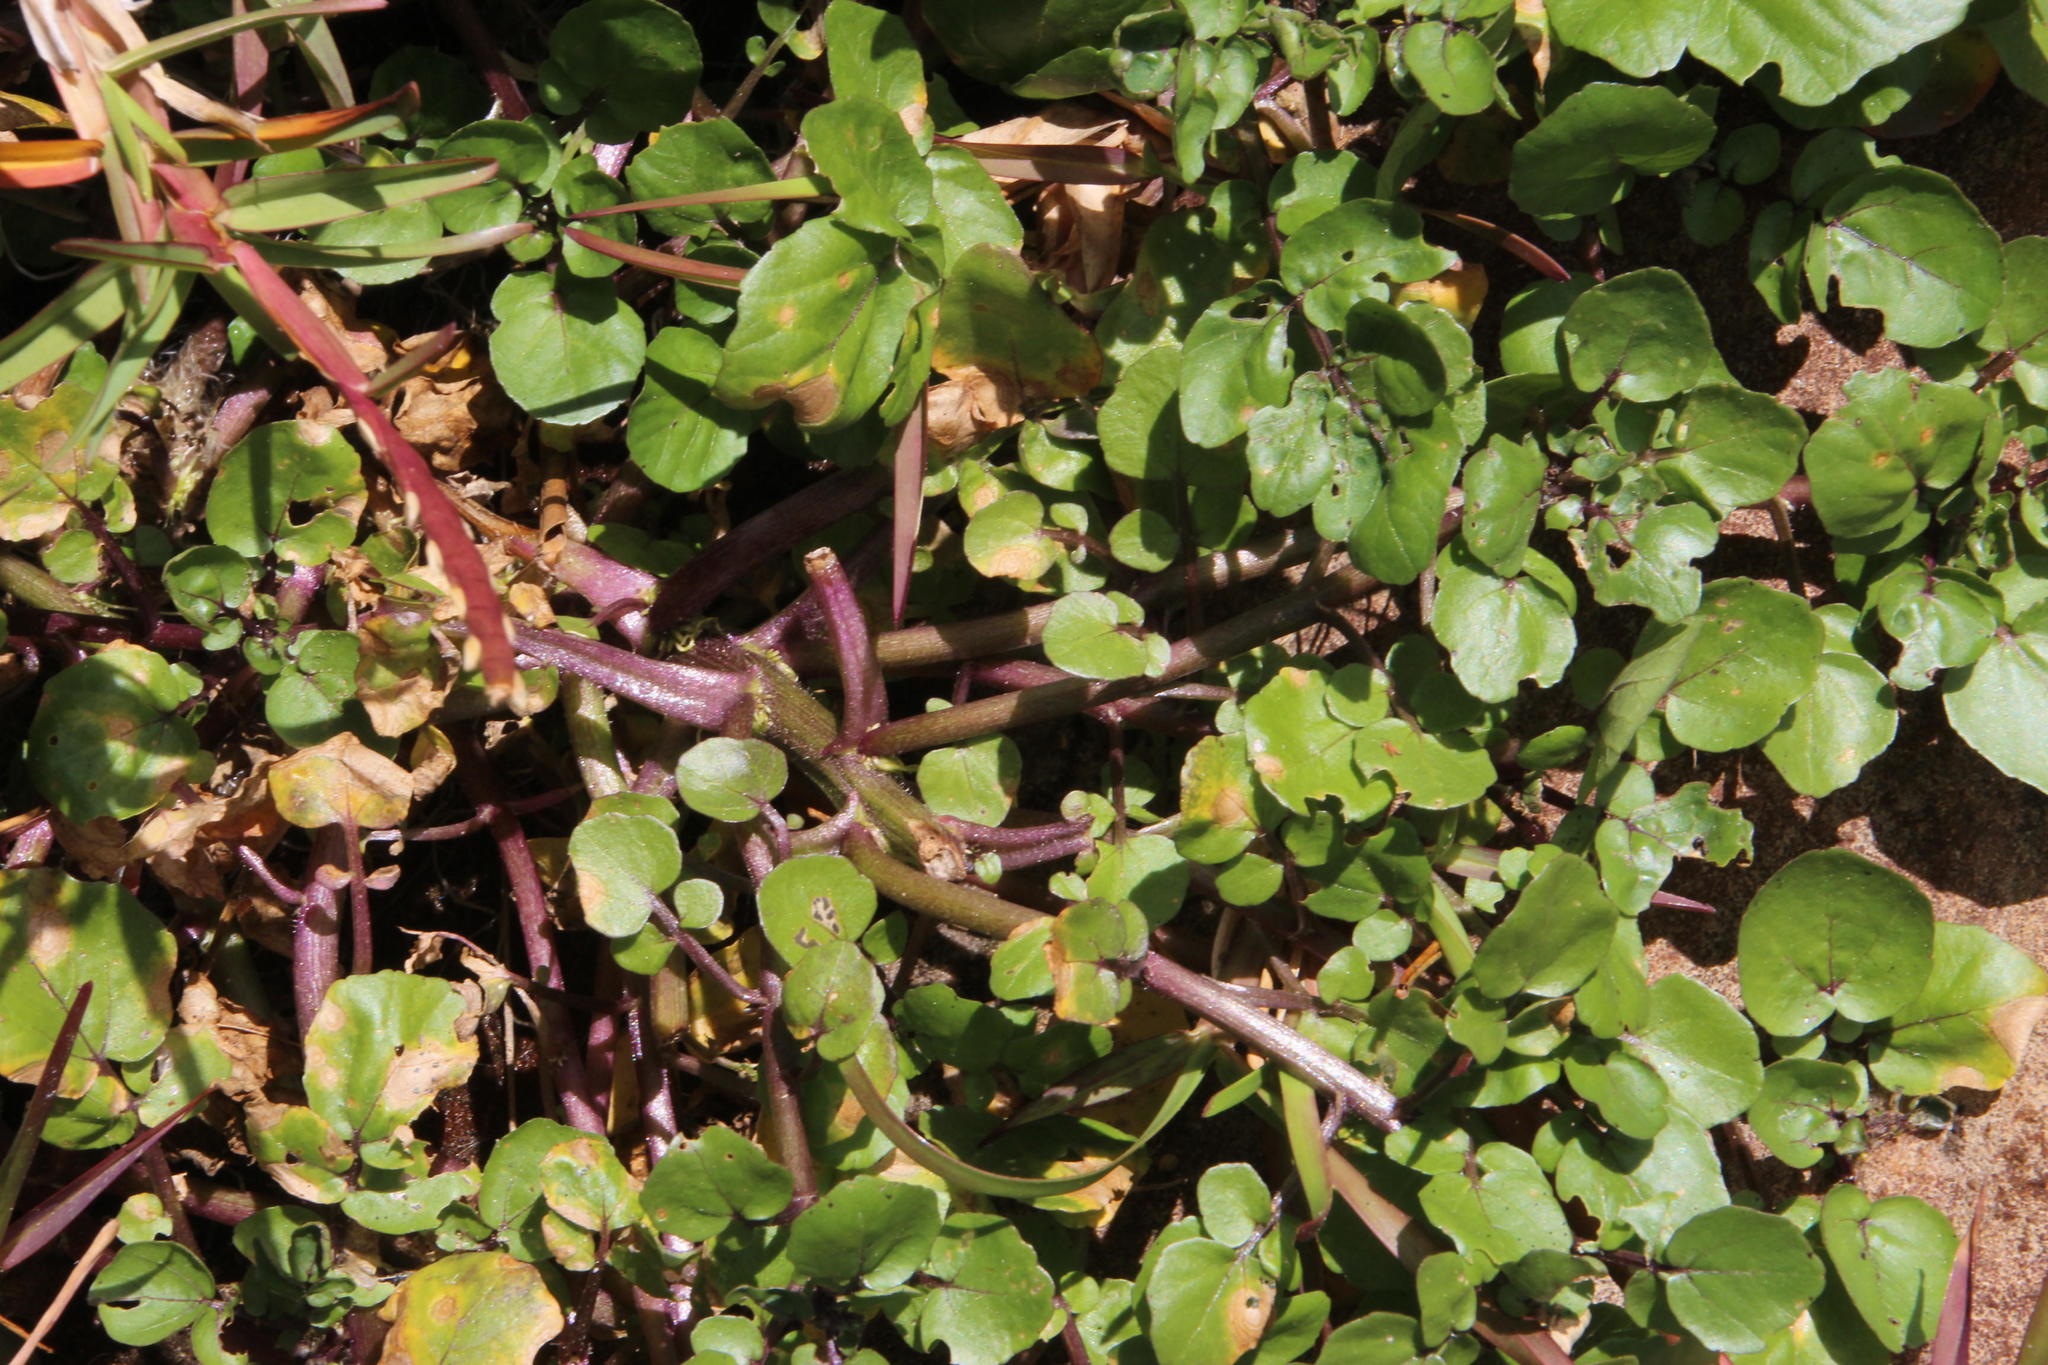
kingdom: Plantae
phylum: Tracheophyta
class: Magnoliopsida
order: Brassicales
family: Brassicaceae
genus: Nasturtium
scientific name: Nasturtium officinale
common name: Watercress
